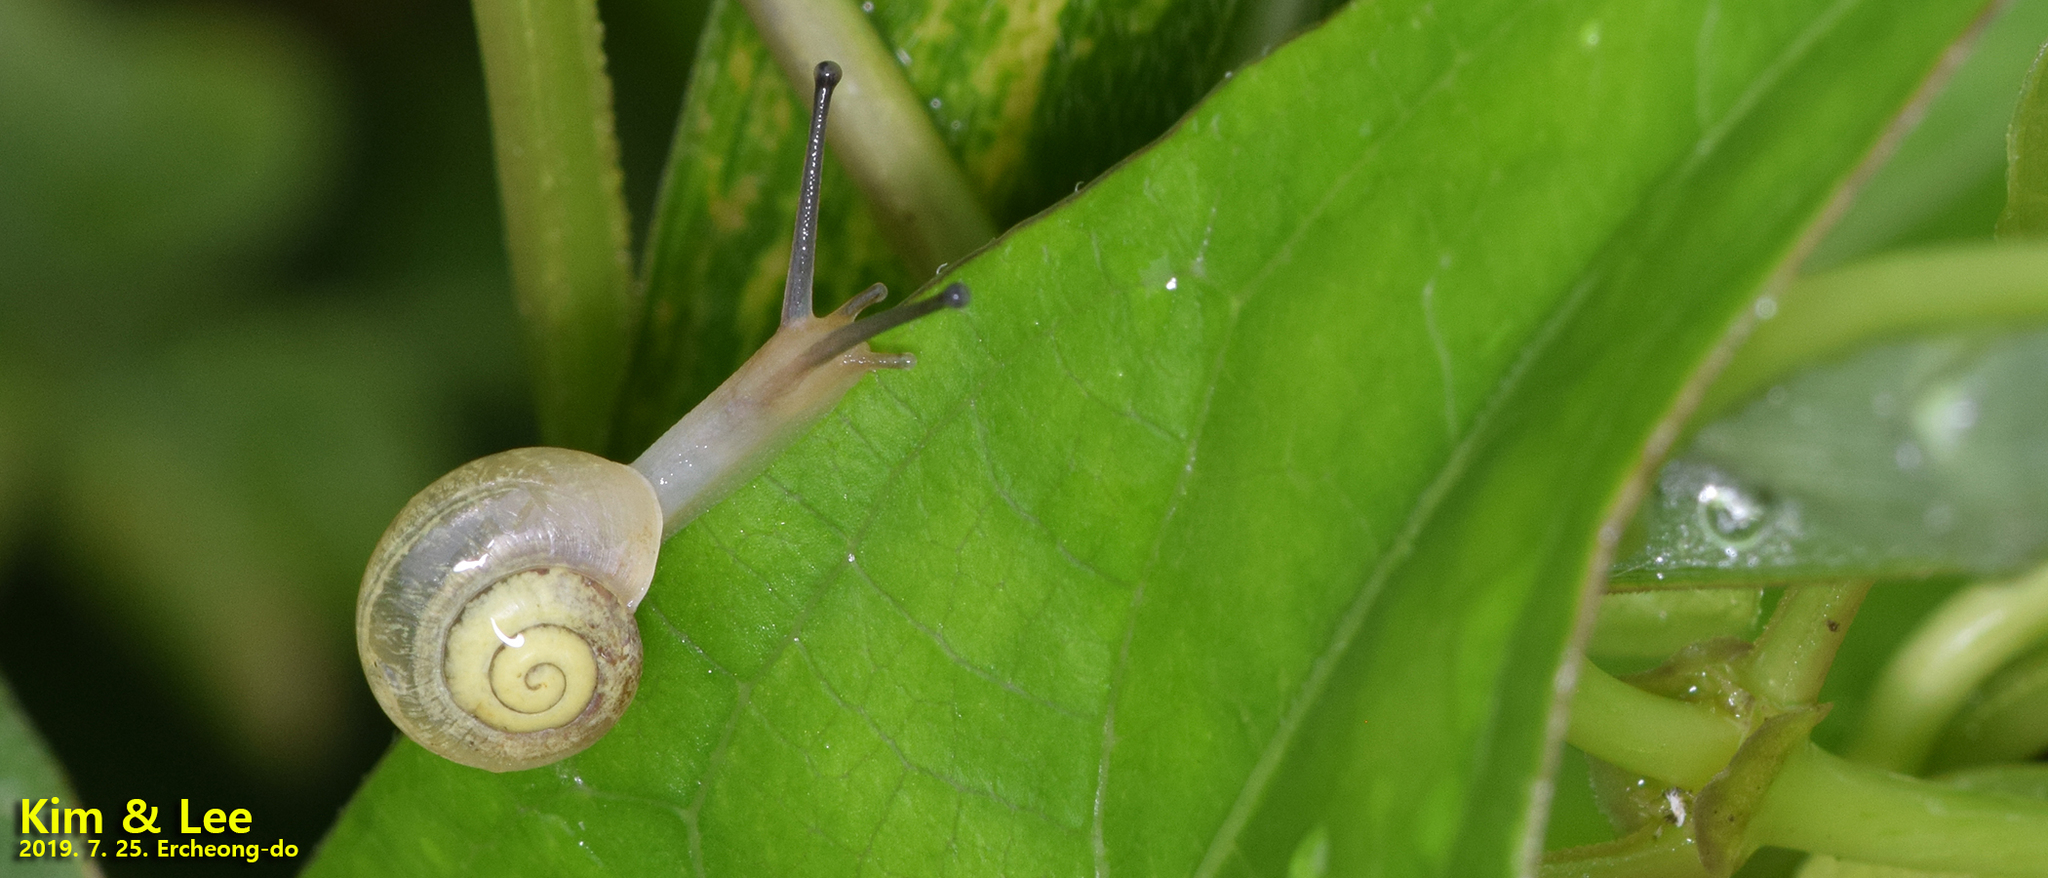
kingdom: Animalia
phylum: Mollusca
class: Gastropoda
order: Stylommatophora
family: Camaenidae
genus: Chosenelix
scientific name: Chosenelix problematica
